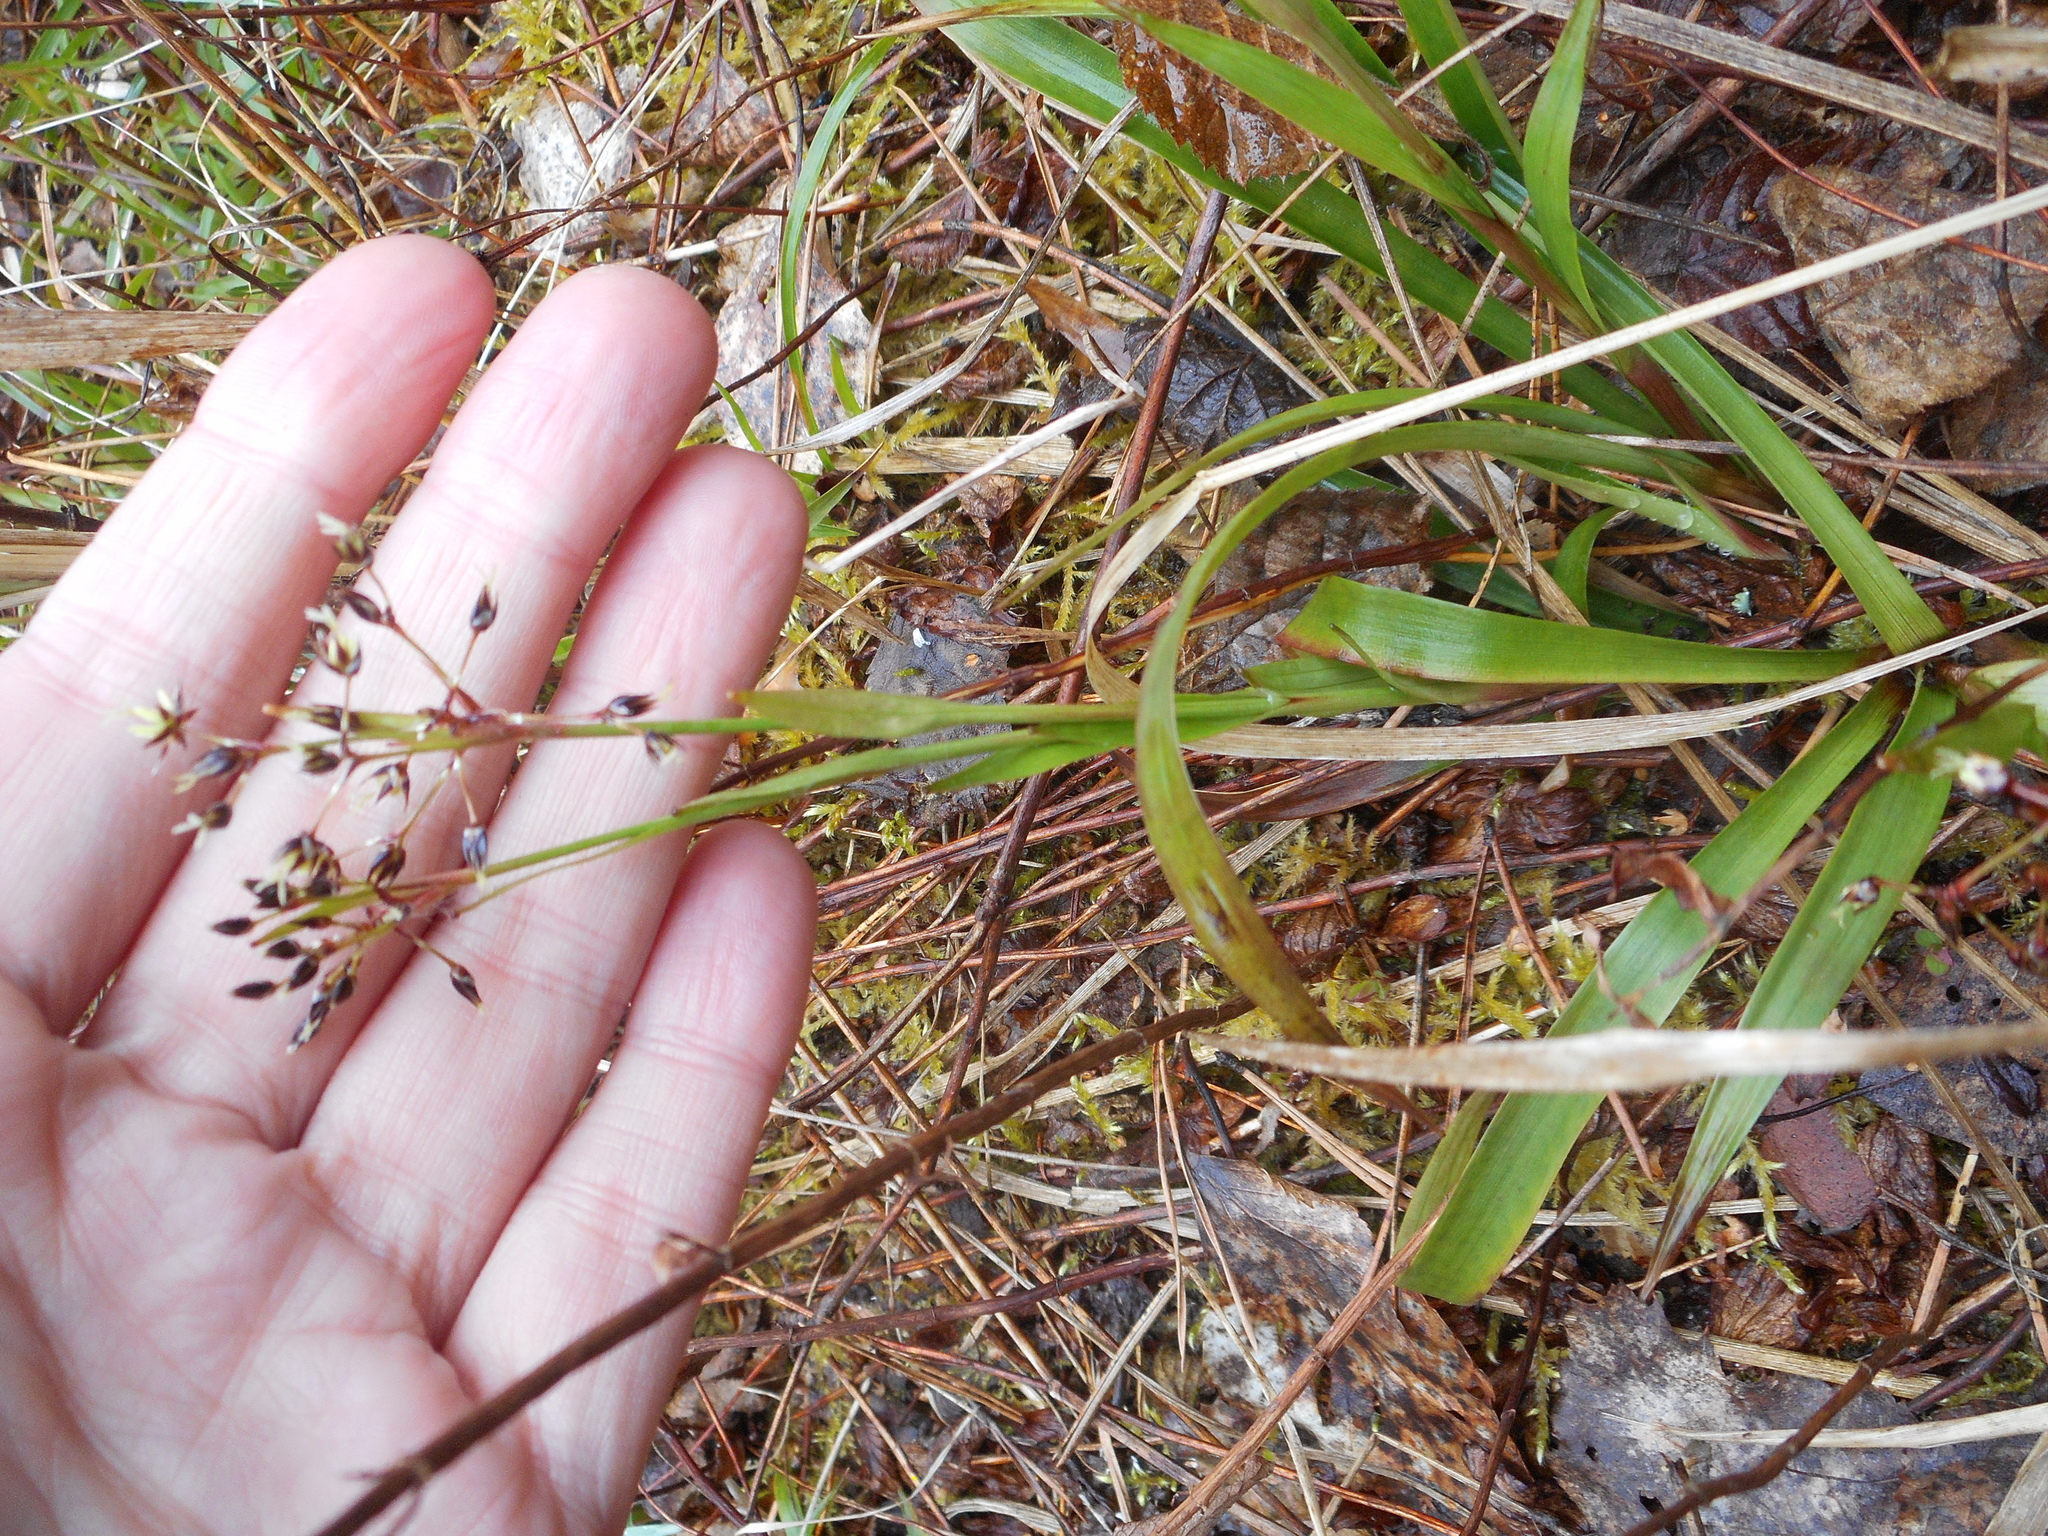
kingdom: Plantae
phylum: Tracheophyta
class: Liliopsida
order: Poales
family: Juncaceae
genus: Luzula
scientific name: Luzula pilosa
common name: Hairy wood-rush
